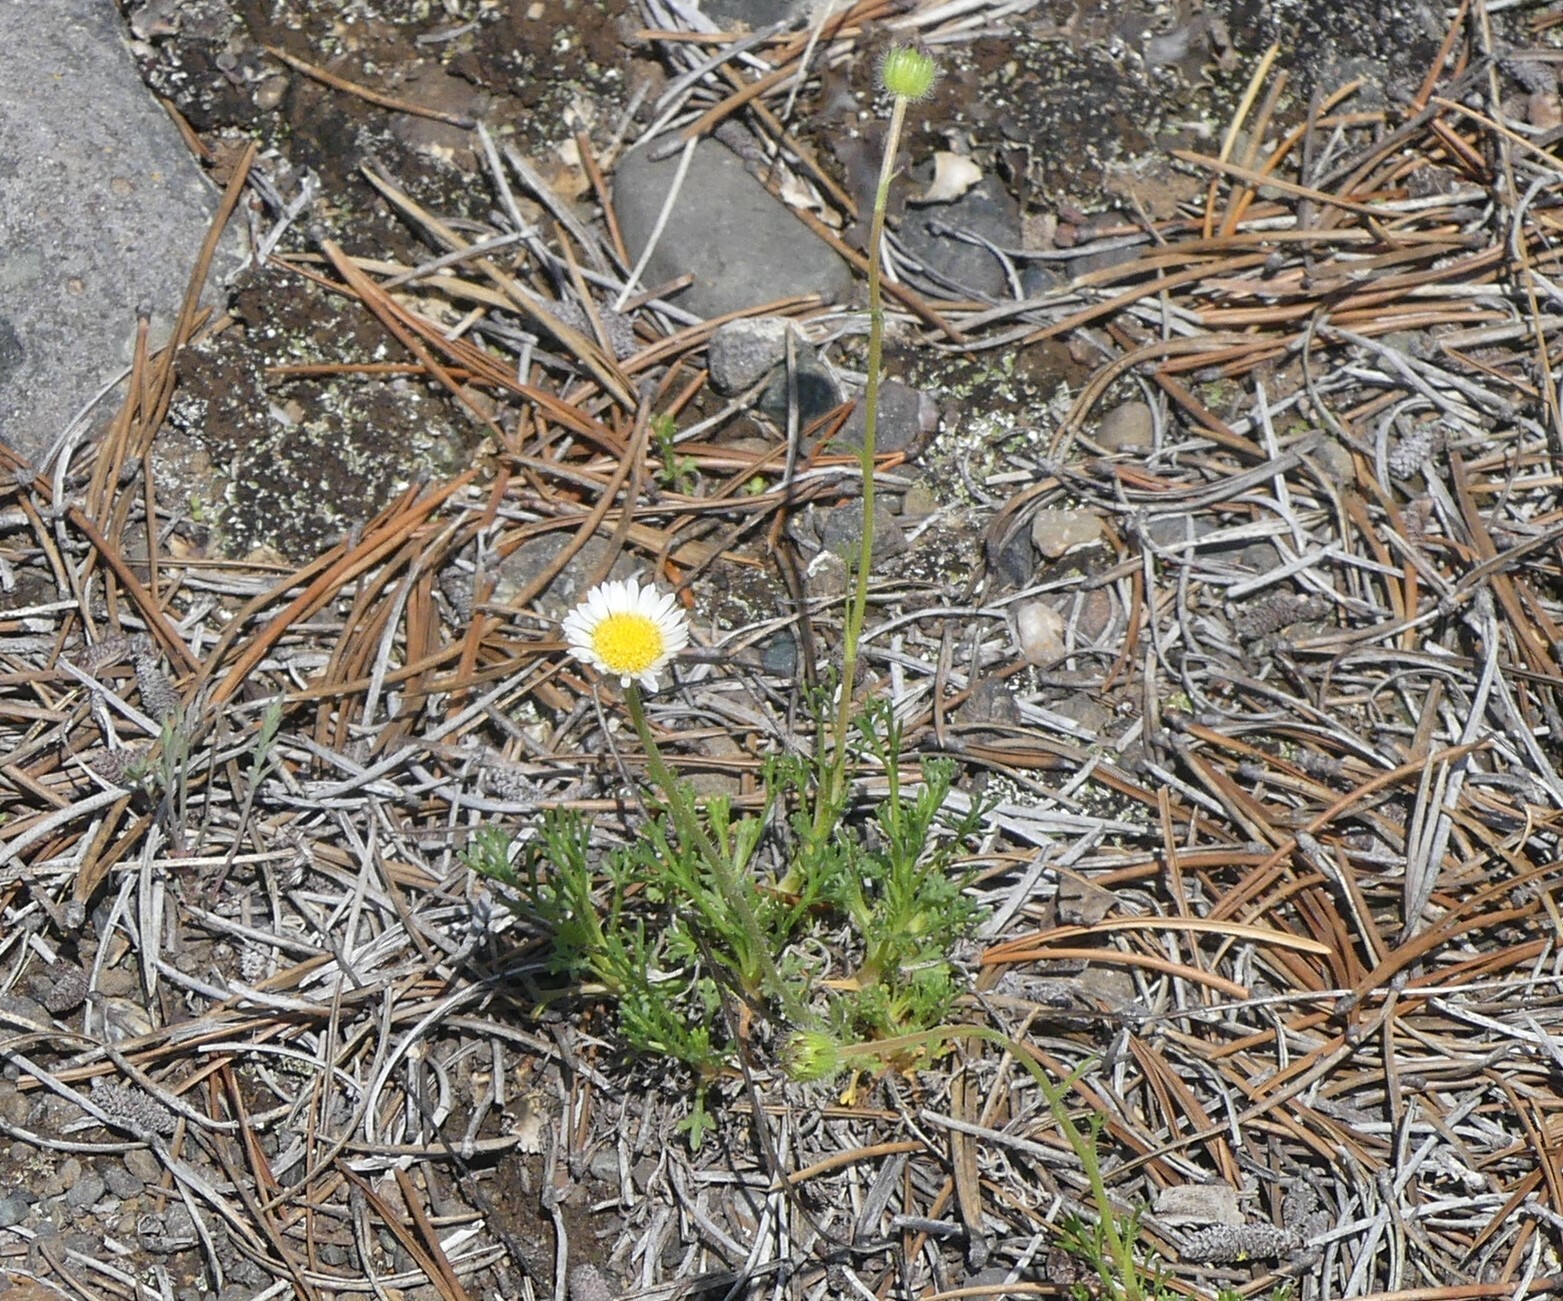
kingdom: Plantae
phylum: Tracheophyta
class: Magnoliopsida
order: Asterales
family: Asteraceae
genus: Erigeron
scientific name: Erigeron compositus
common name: Dwarf mountain fleabane
